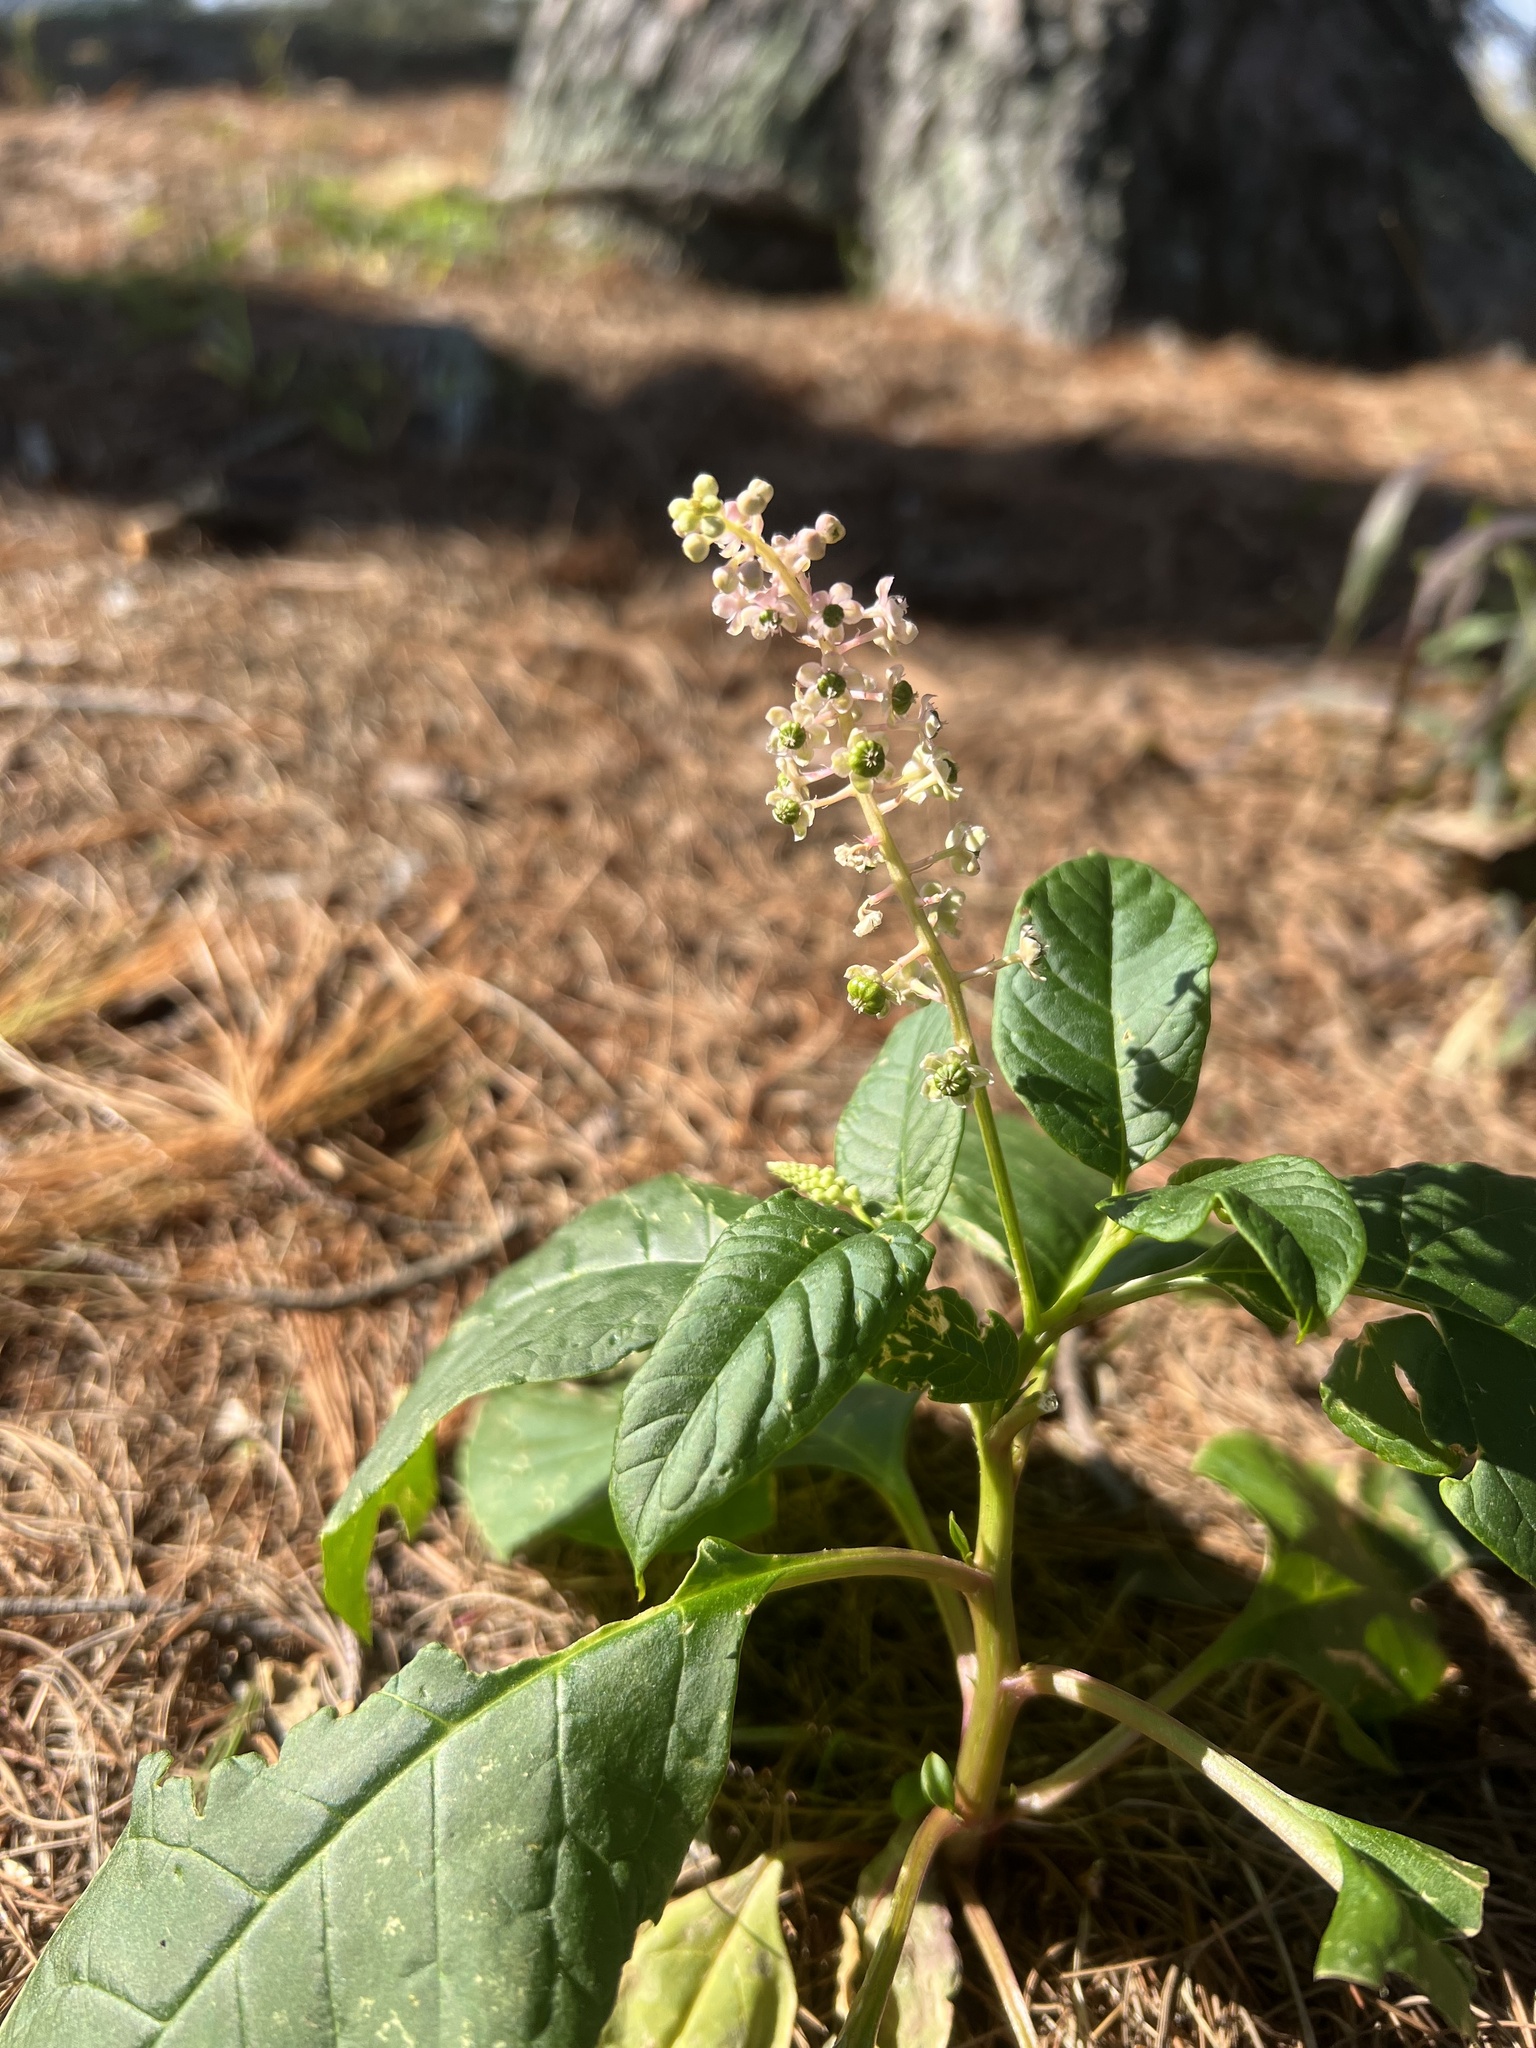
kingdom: Plantae
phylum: Tracheophyta
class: Magnoliopsida
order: Caryophyllales
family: Phytolaccaceae
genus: Phytolacca
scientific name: Phytolacca americana
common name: American pokeweed
